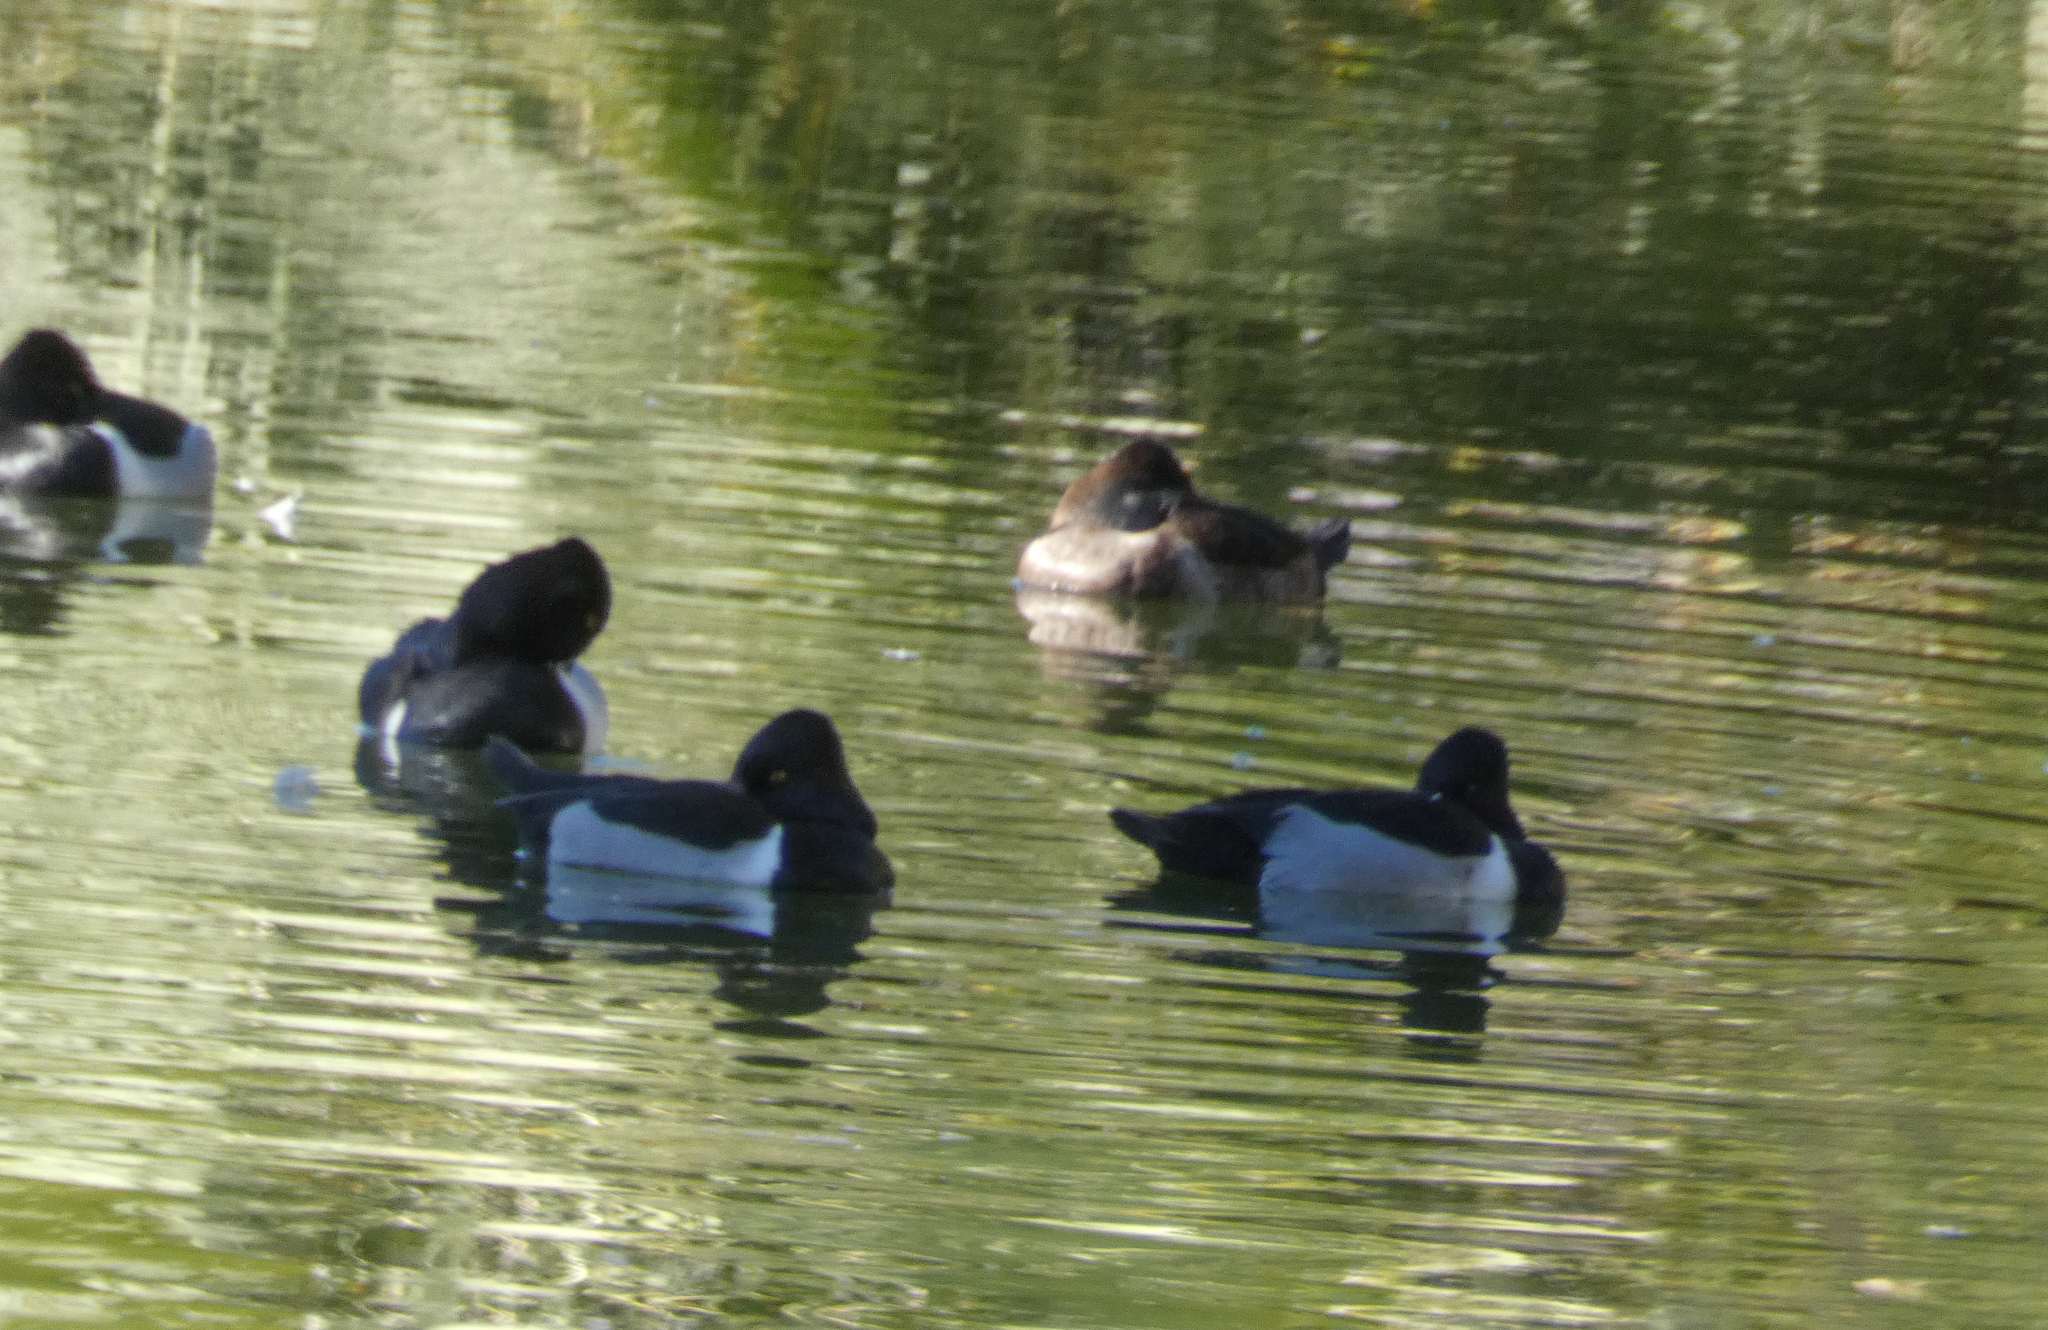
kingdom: Animalia
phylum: Chordata
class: Aves
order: Anseriformes
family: Anatidae
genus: Aythya
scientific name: Aythya collaris
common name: Ring-necked duck
